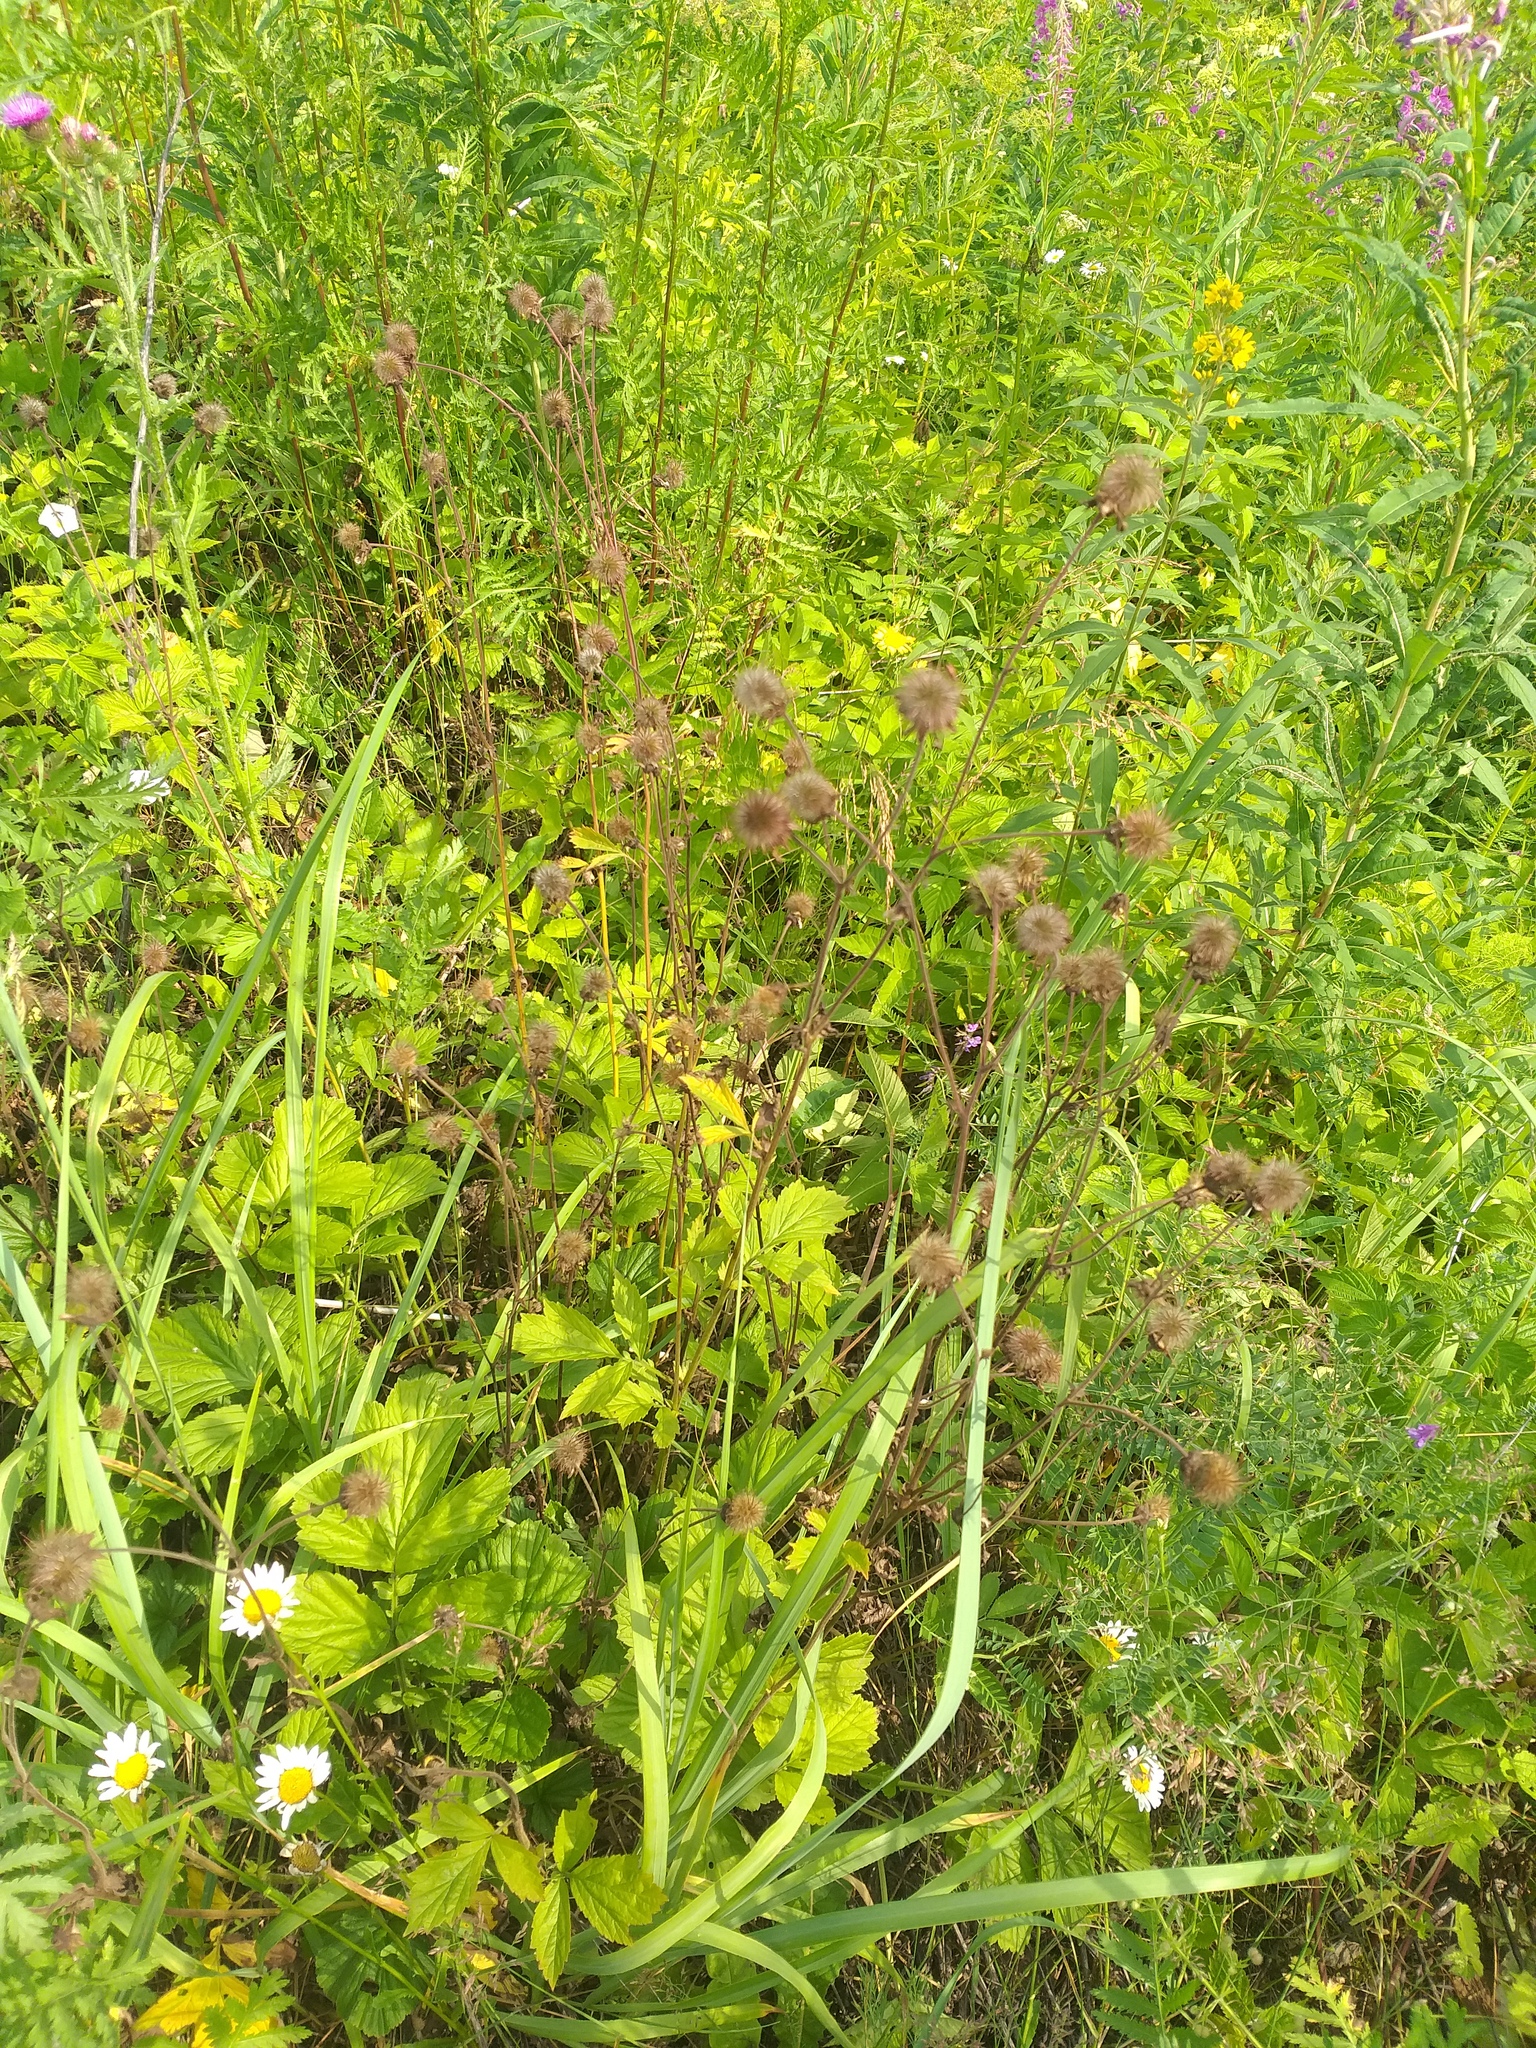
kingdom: Plantae
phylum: Tracheophyta
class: Magnoliopsida
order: Rosales
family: Rosaceae
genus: Geum
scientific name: Geum rivale
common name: Water avens
